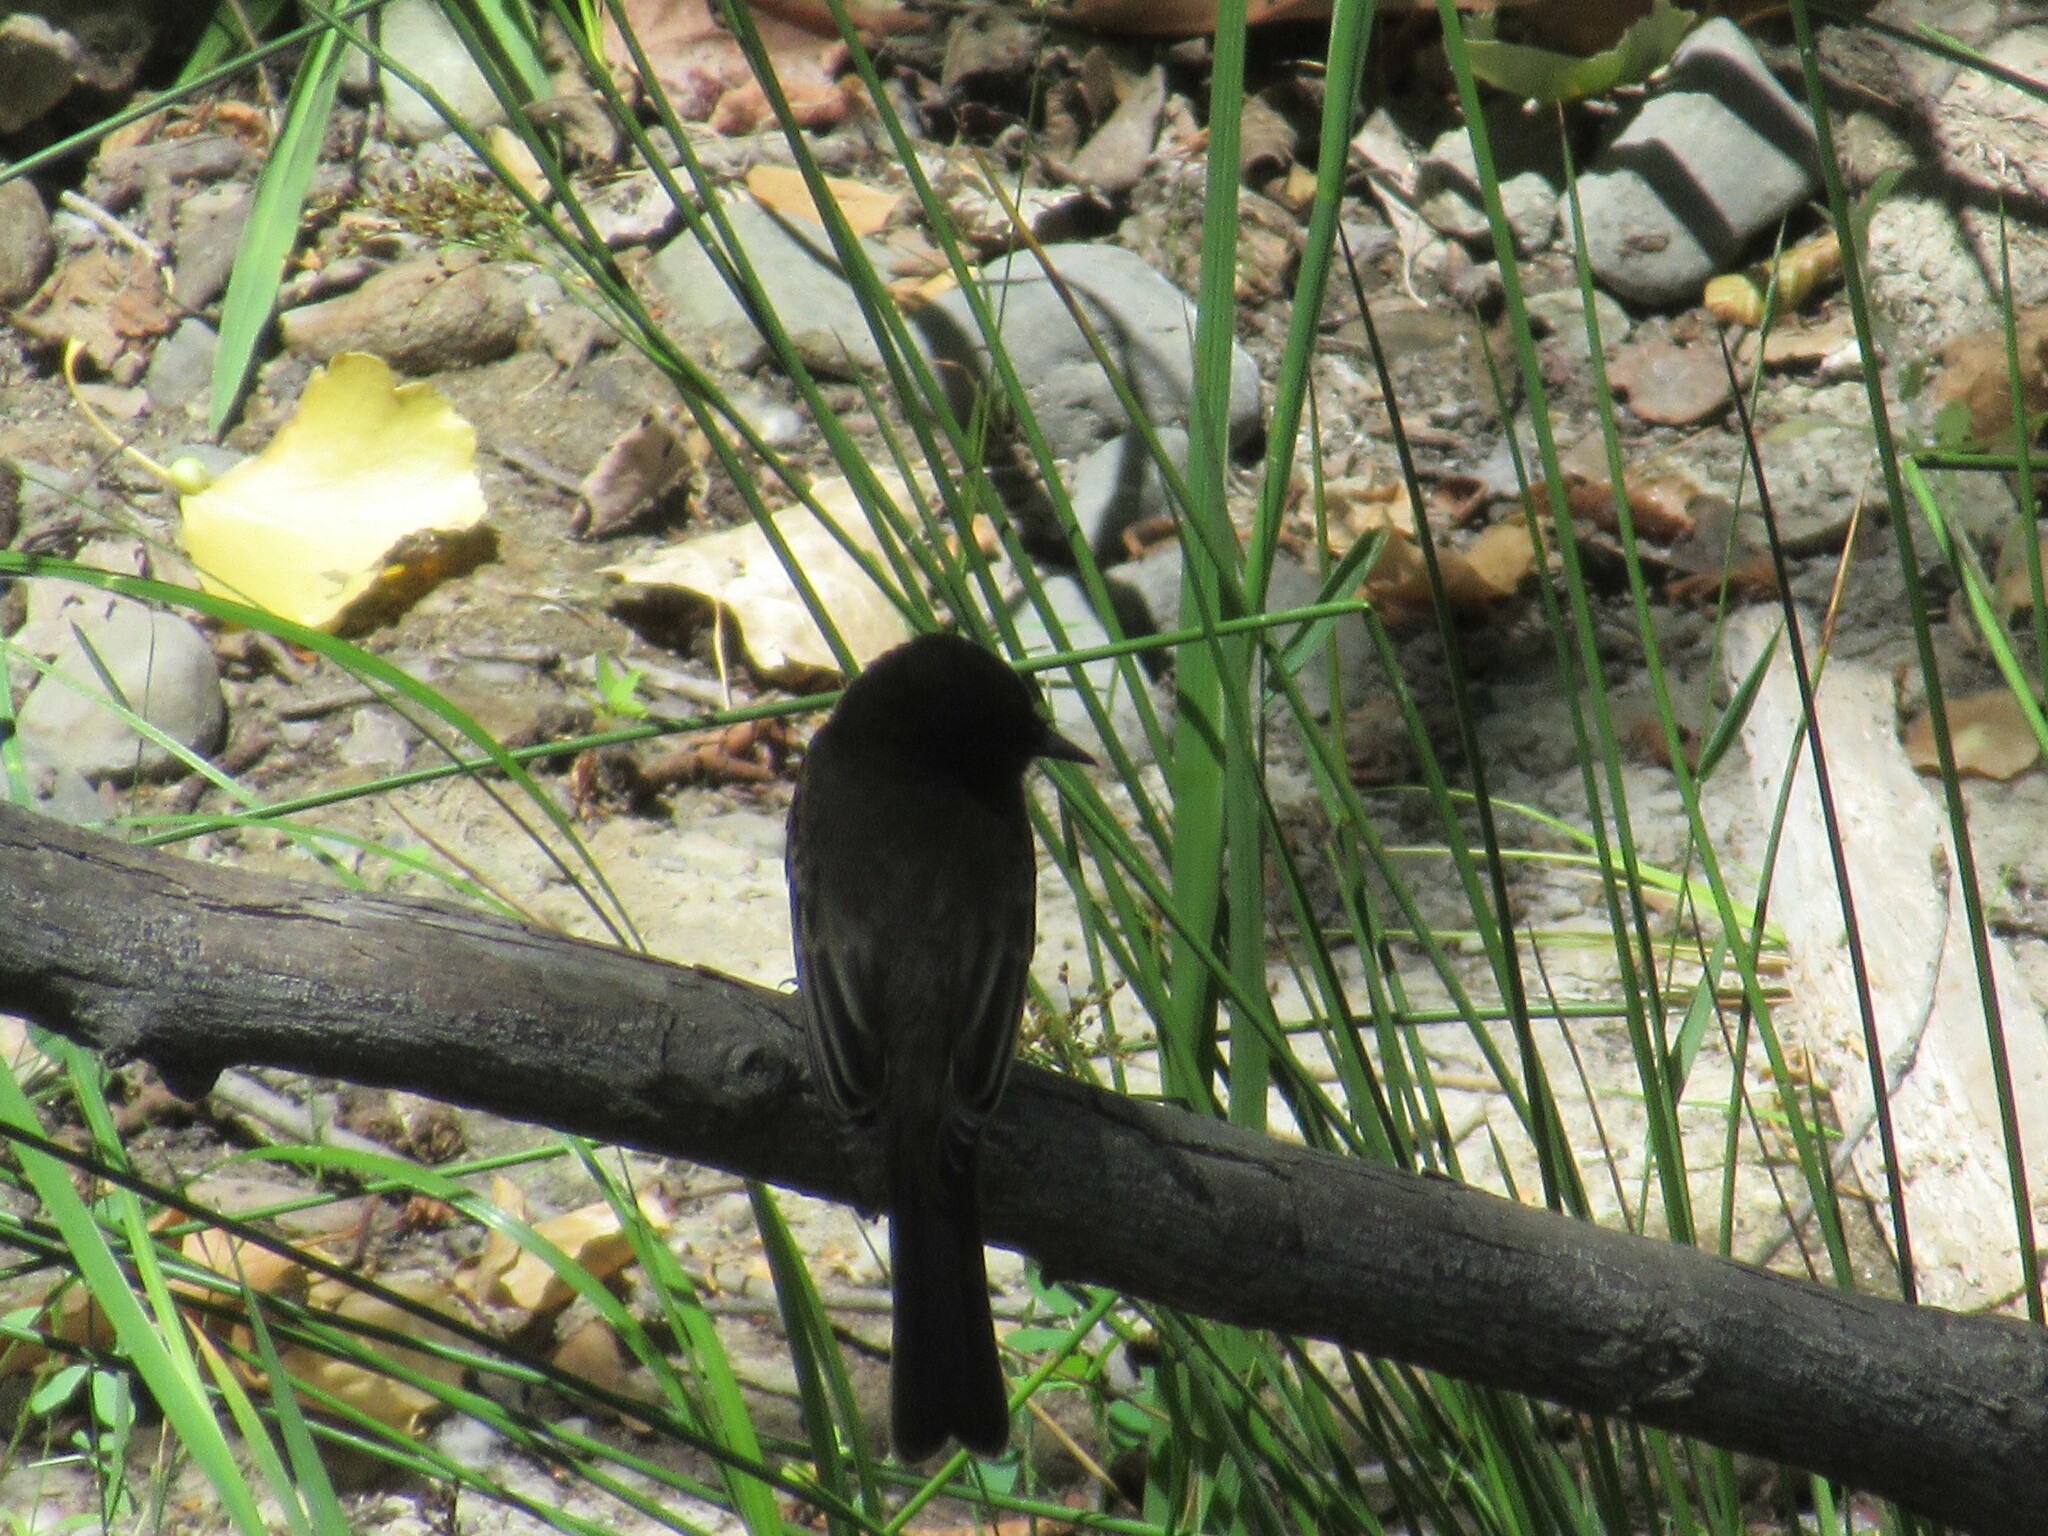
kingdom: Animalia
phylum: Chordata
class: Aves
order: Passeriformes
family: Tyrannidae
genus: Sayornis
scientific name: Sayornis nigricans
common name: Black phoebe
